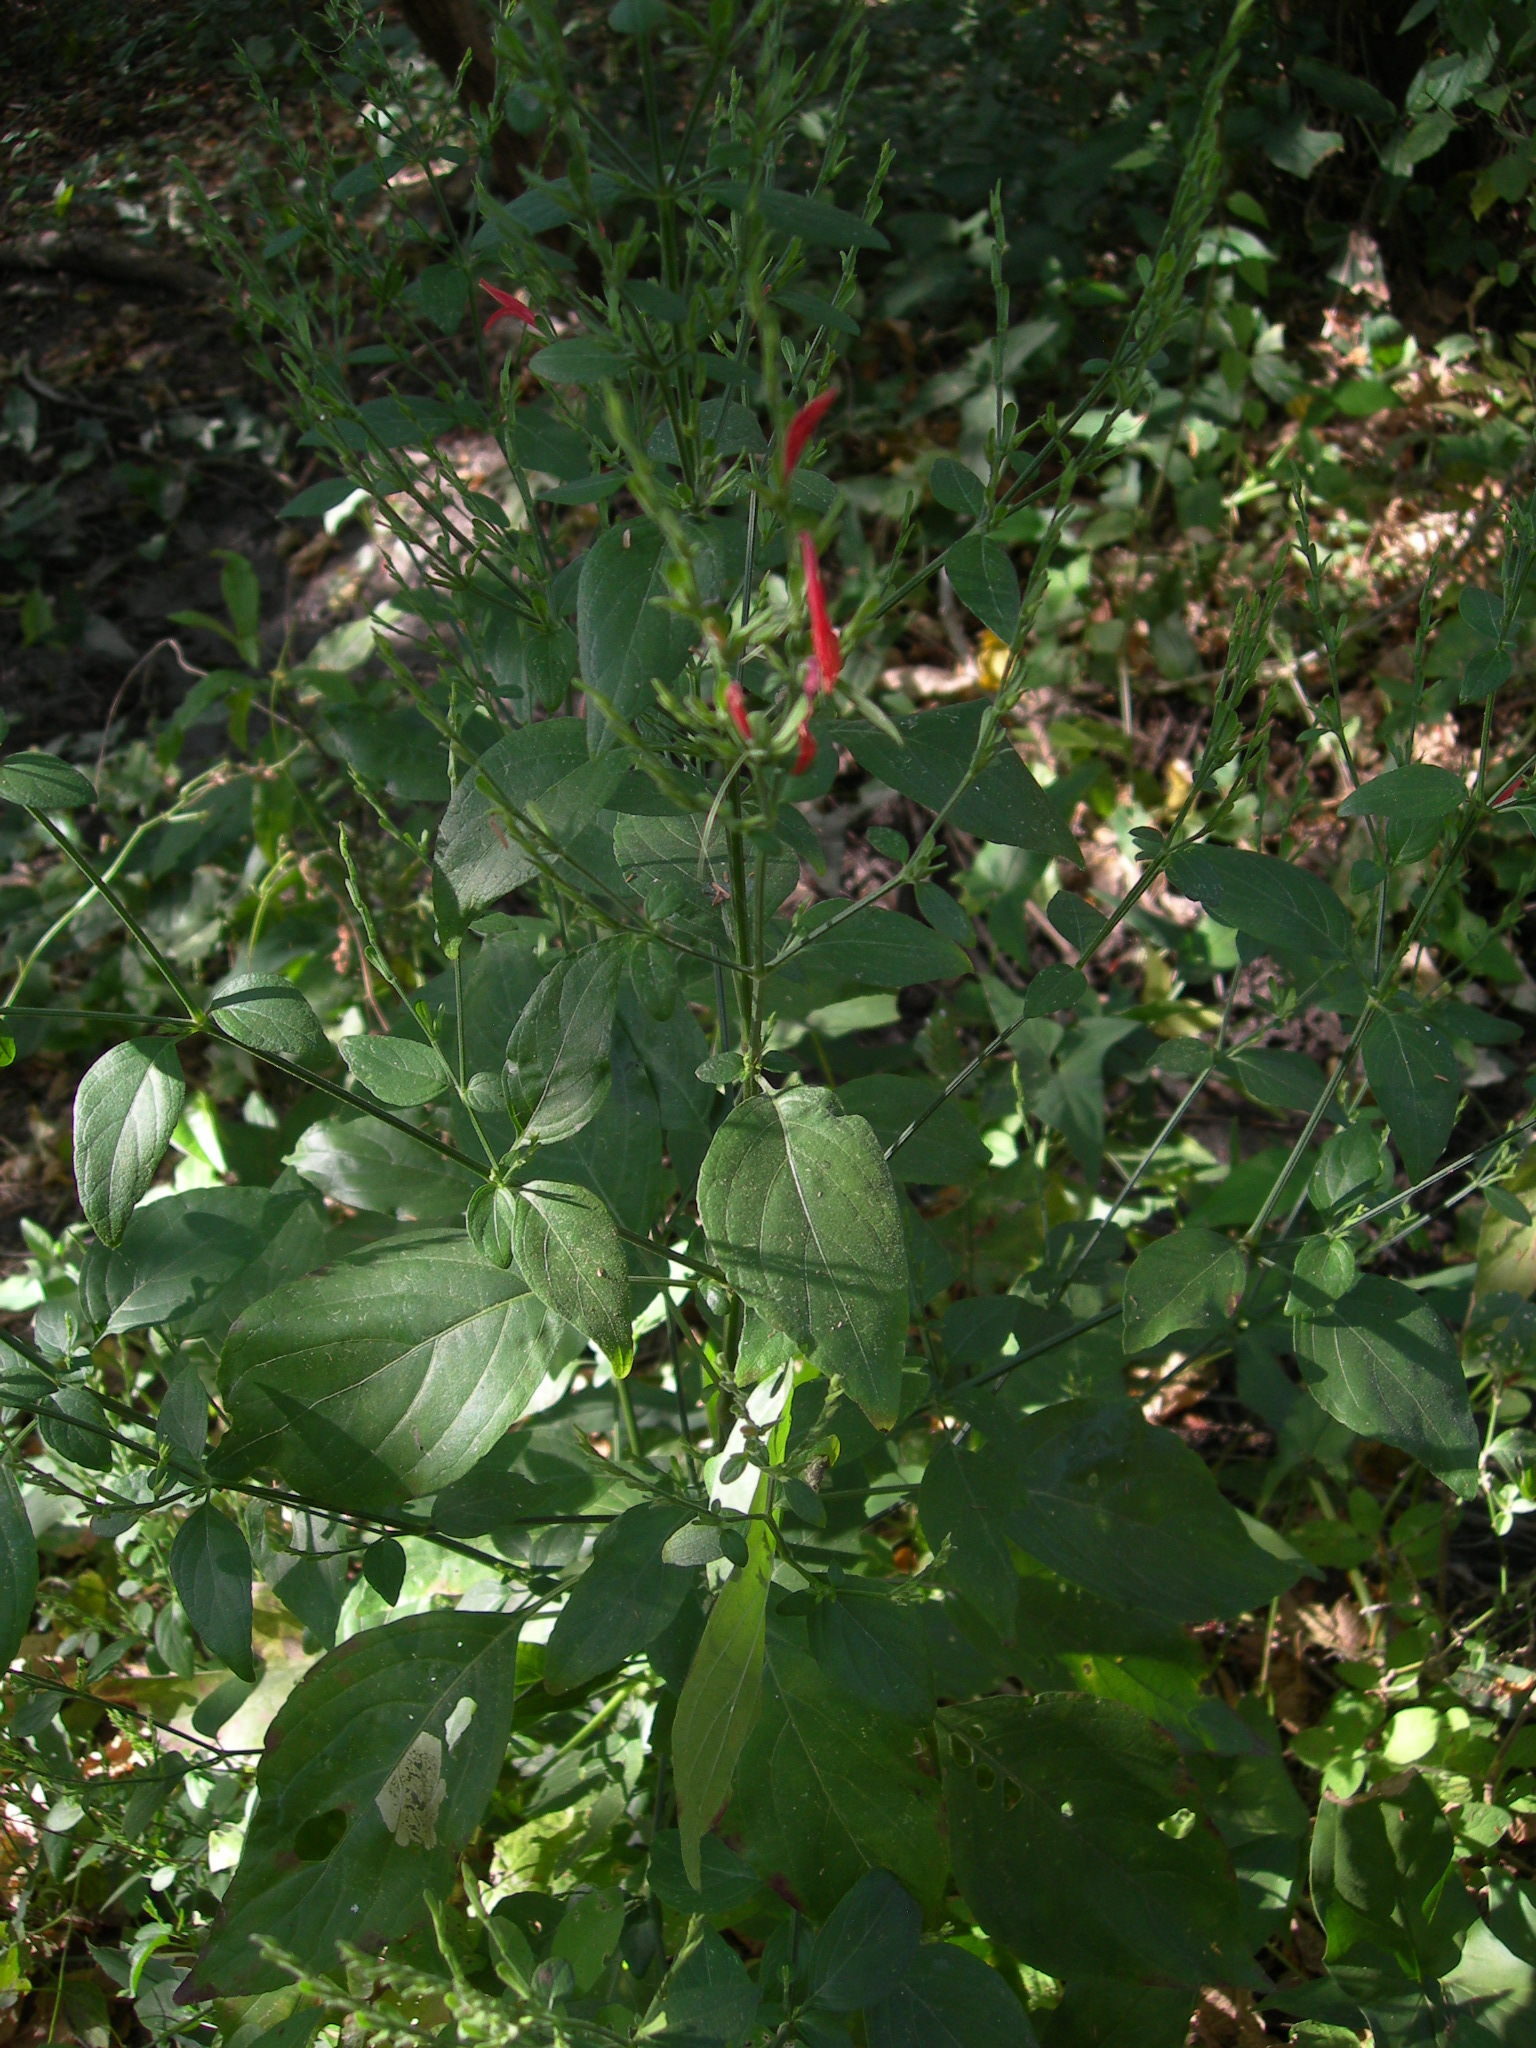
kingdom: Plantae
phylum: Tracheophyta
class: Magnoliopsida
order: Lamiales
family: Acanthaceae
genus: Dicliptera
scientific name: Dicliptera sexangularis
